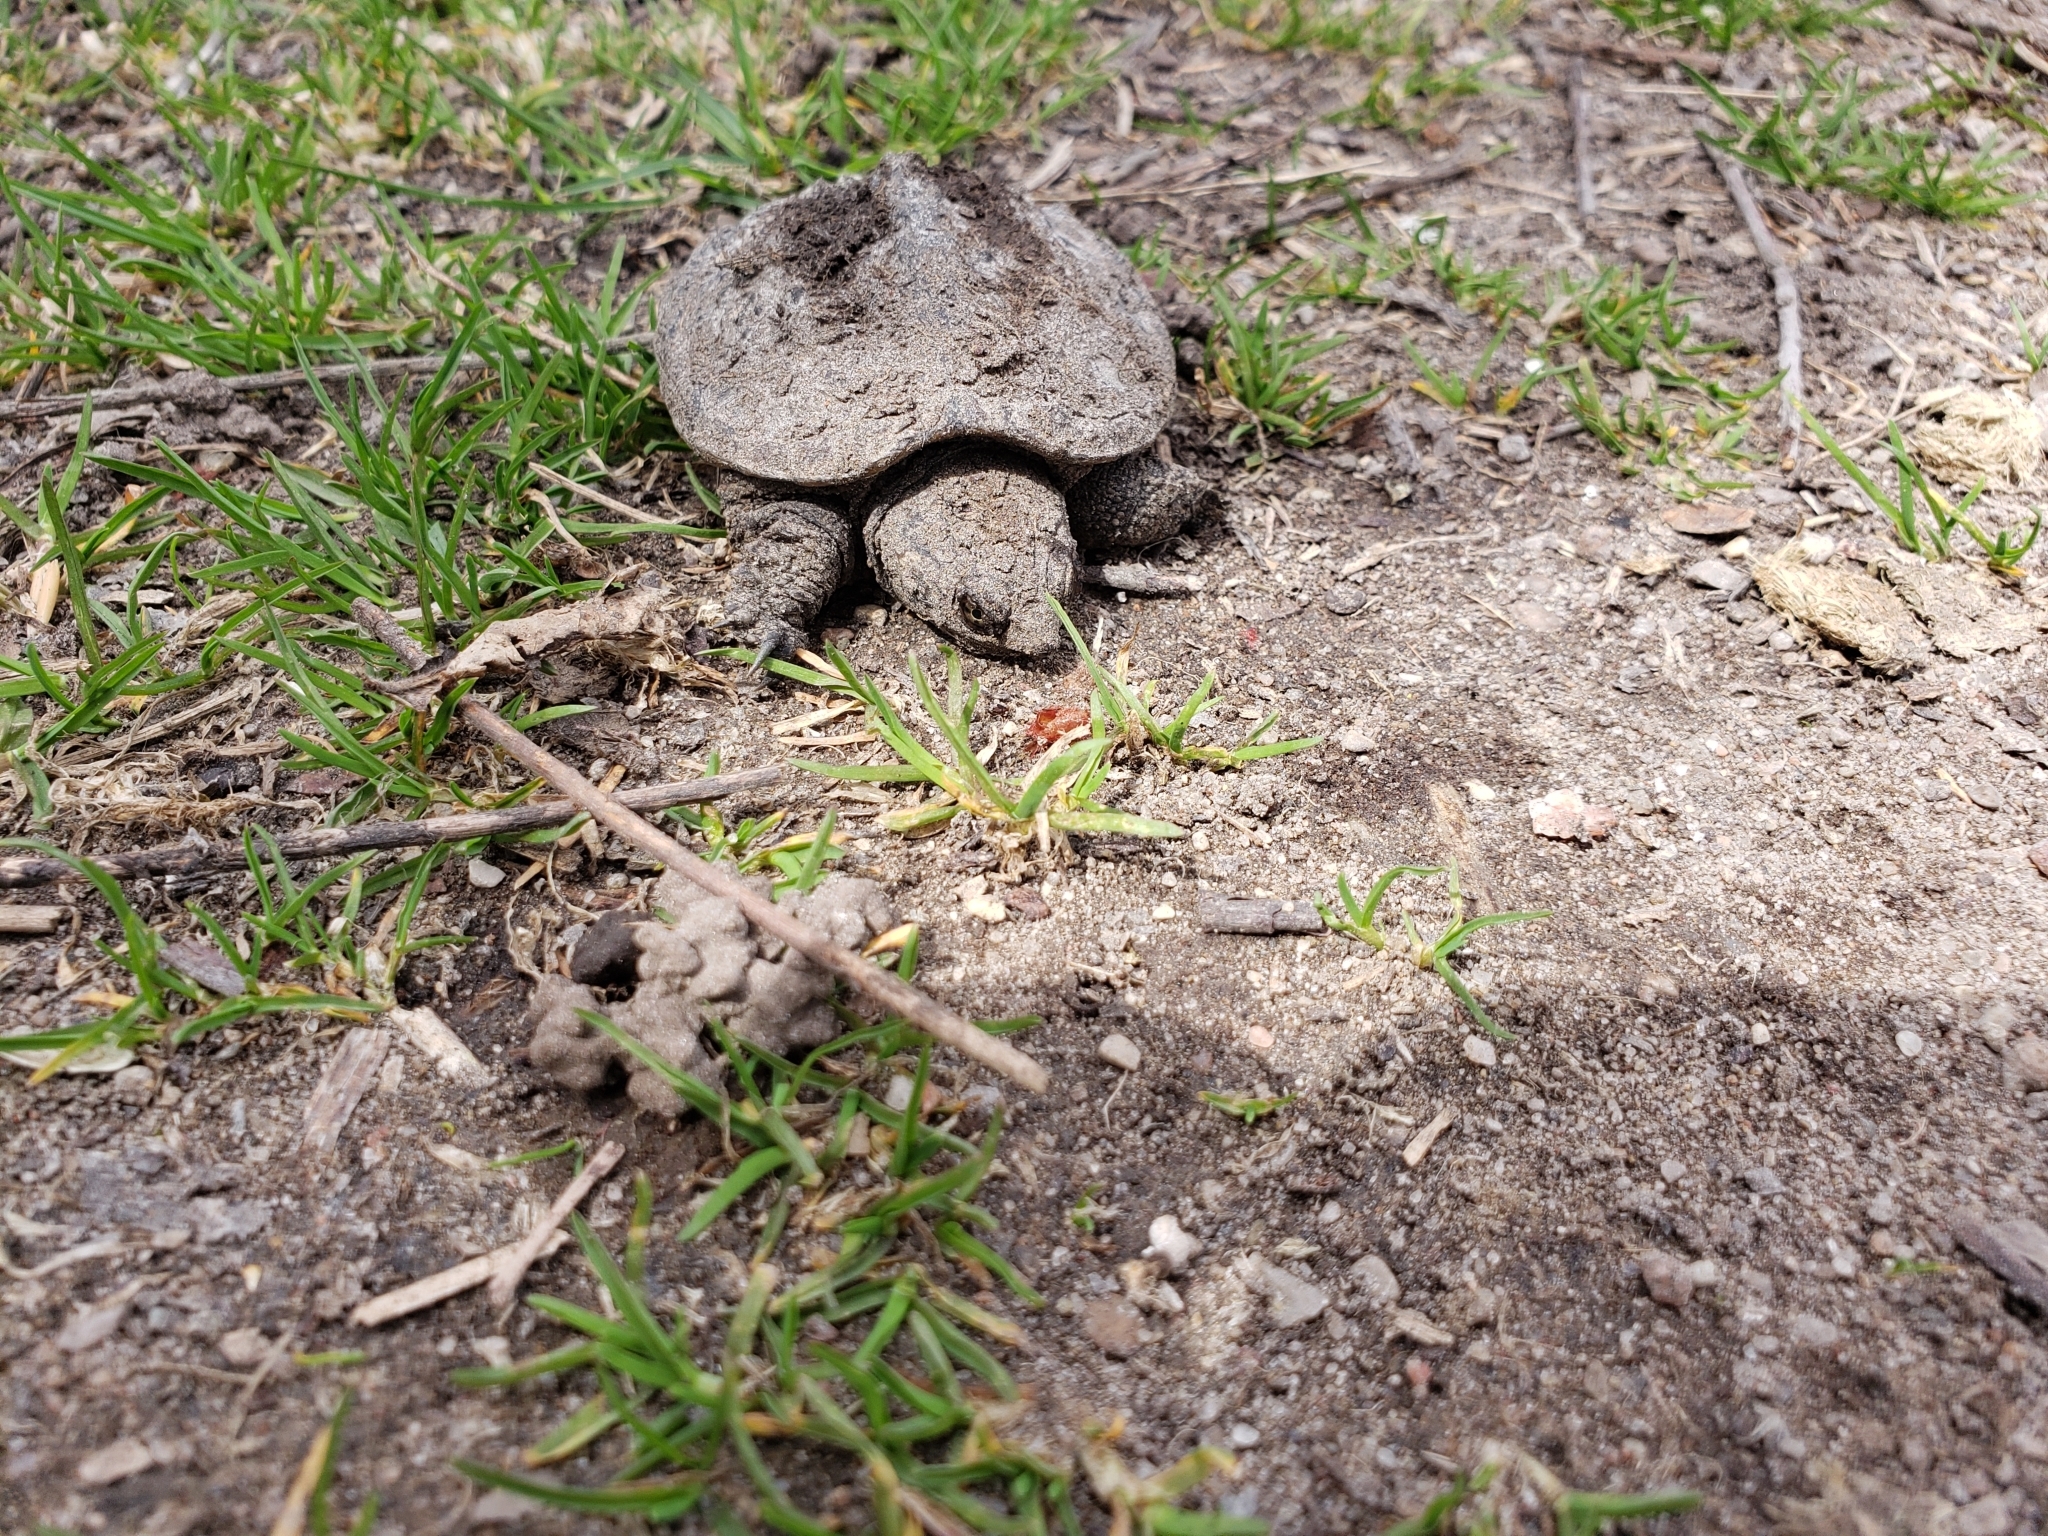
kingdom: Animalia
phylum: Chordata
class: Testudines
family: Chelydridae
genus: Chelydra
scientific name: Chelydra serpentina
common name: Common snapping turtle
